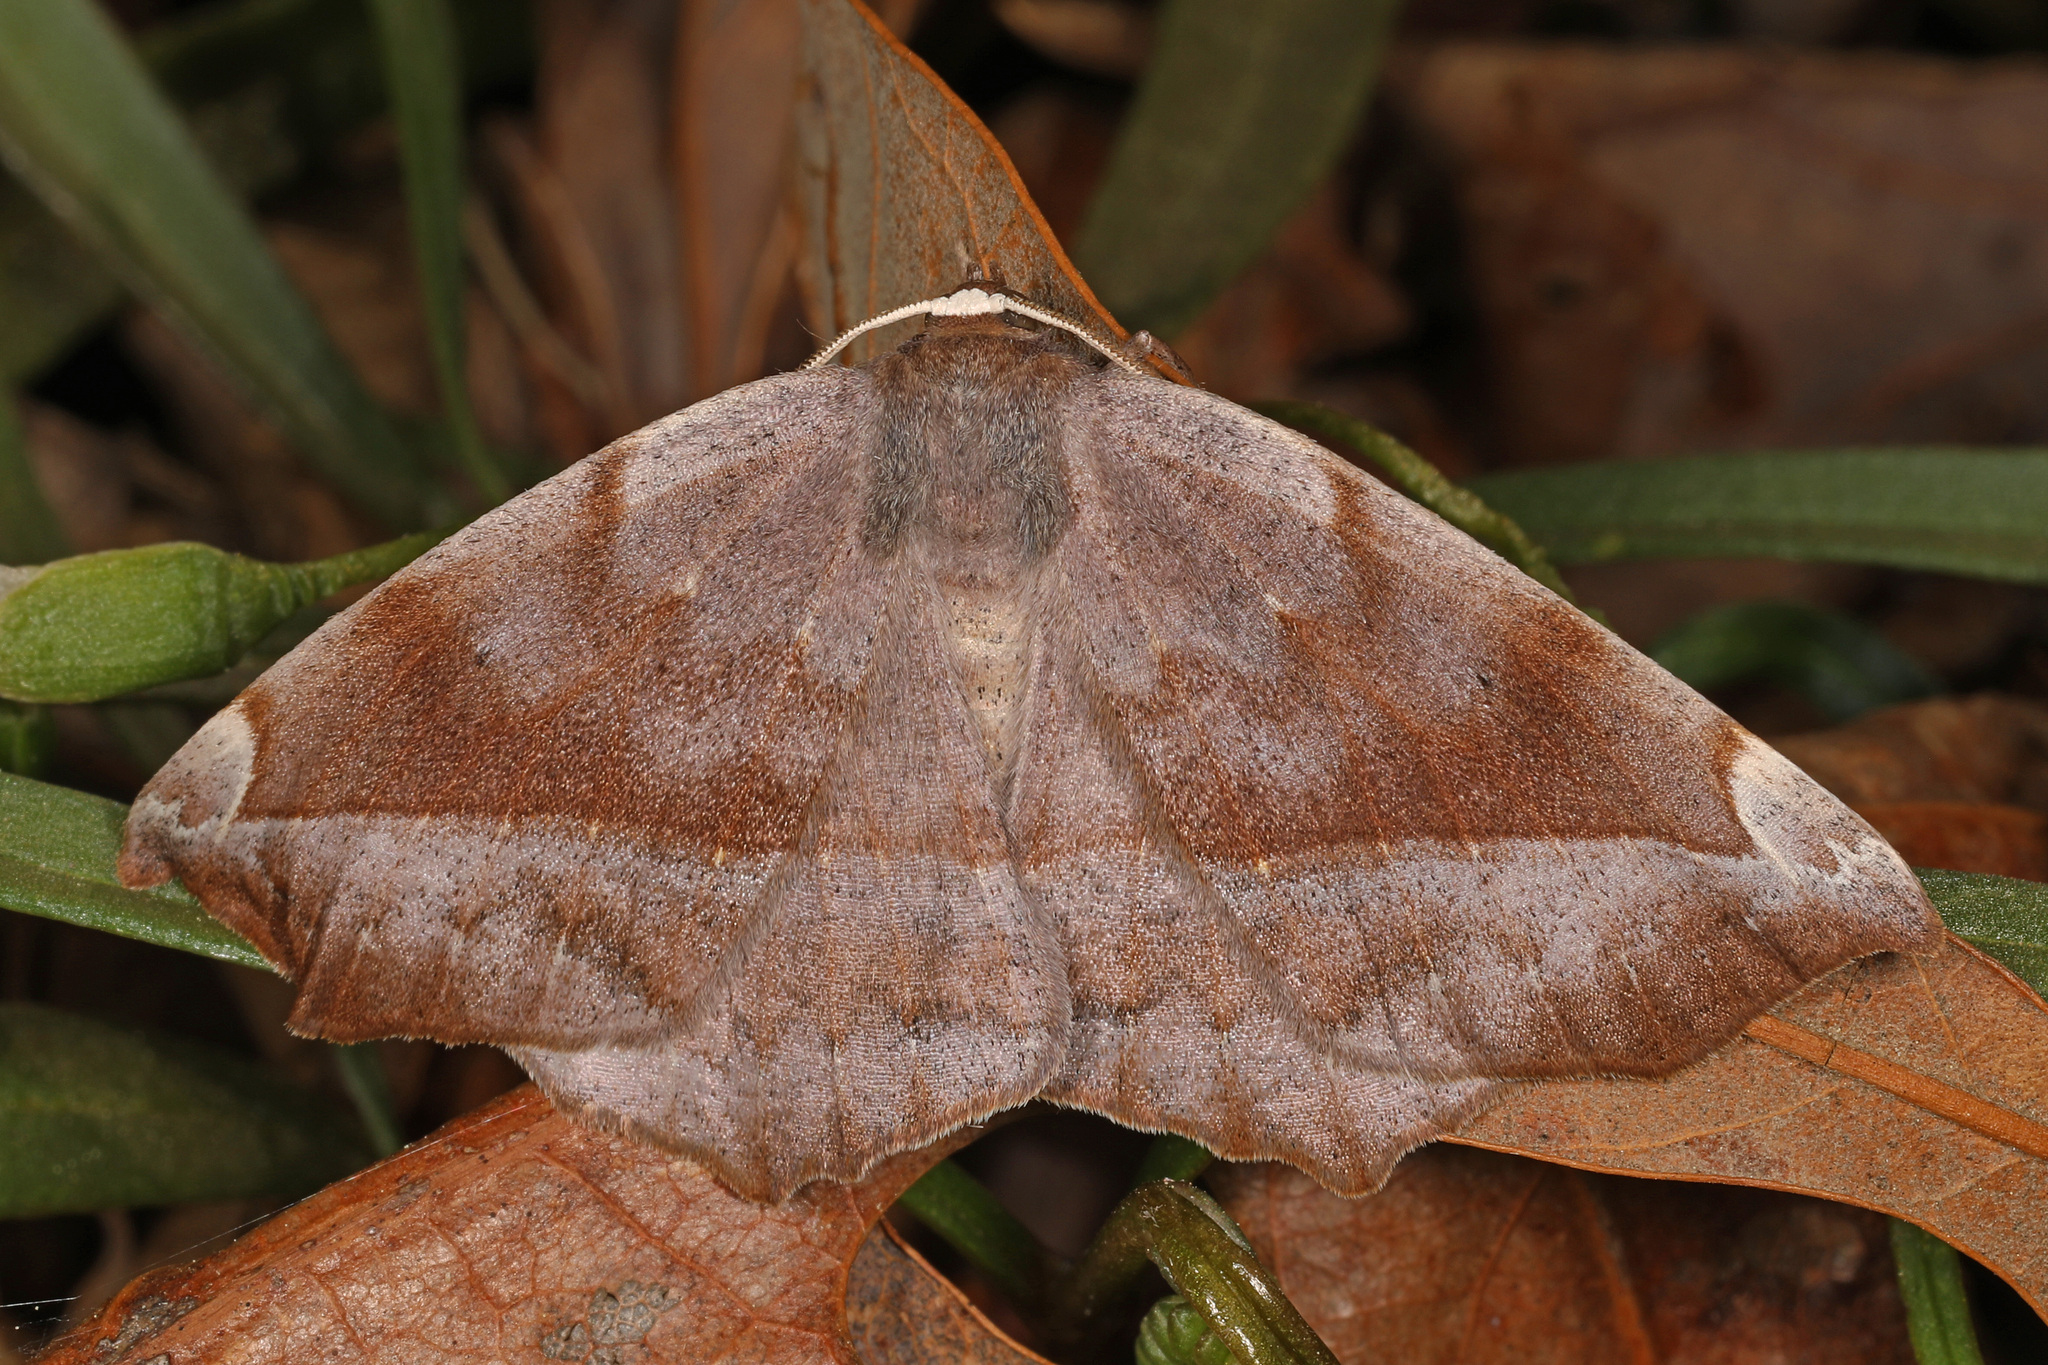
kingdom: Animalia
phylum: Arthropoda
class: Insecta
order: Lepidoptera
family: Geometridae
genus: Eutrapela
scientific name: Eutrapela clemataria
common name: Curved-toothed geometer
